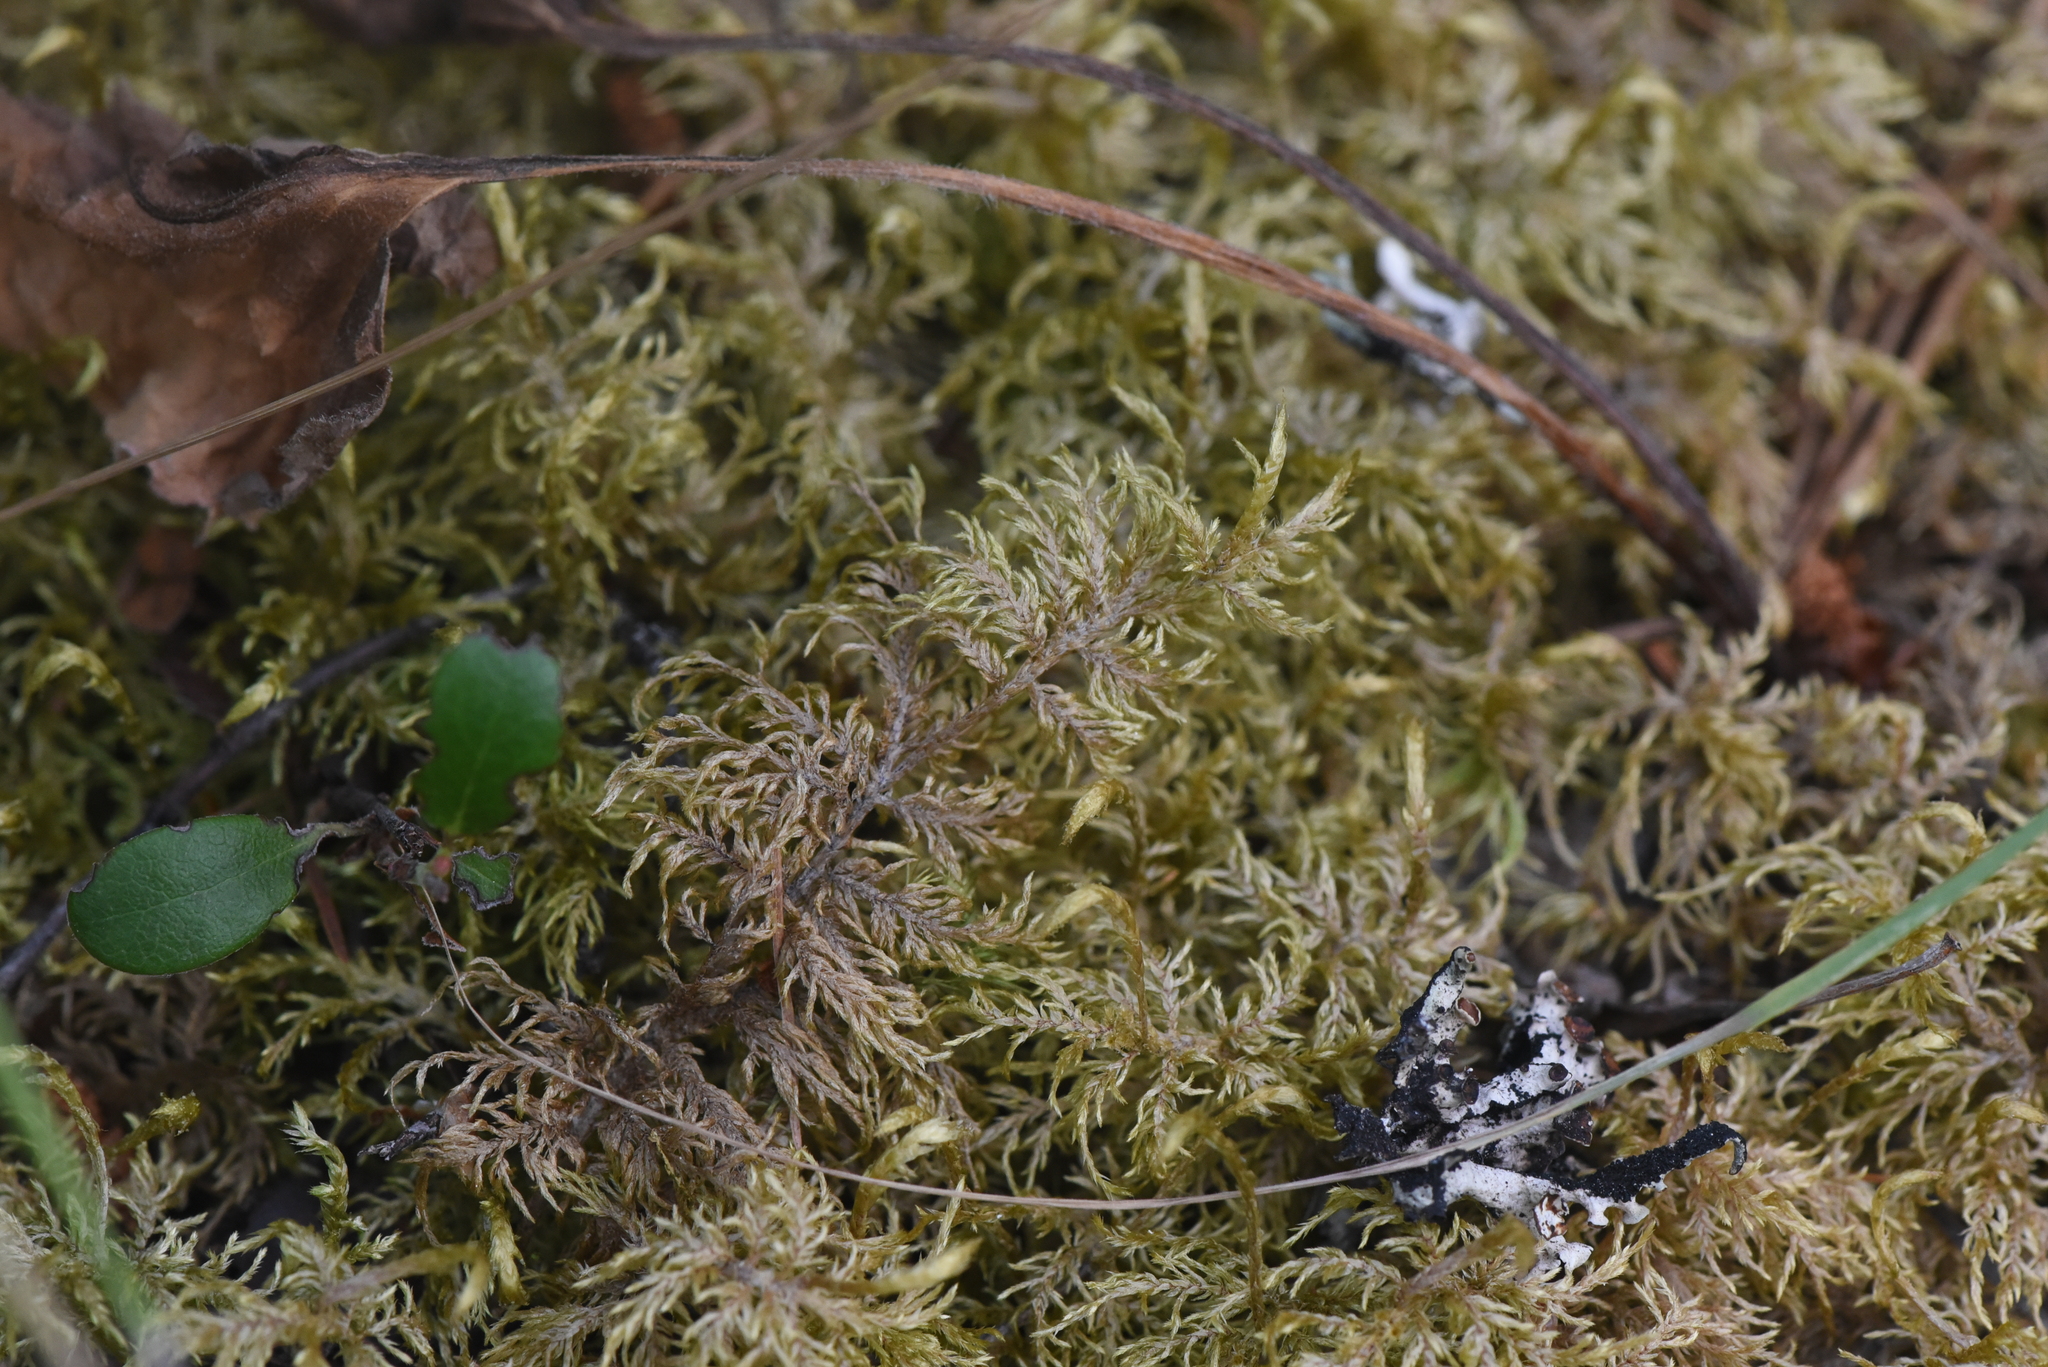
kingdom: Plantae
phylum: Bryophyta
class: Bryopsida
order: Hypnales
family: Hylocomiaceae
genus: Hylocomium
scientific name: Hylocomium splendens
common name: Stairstep moss
